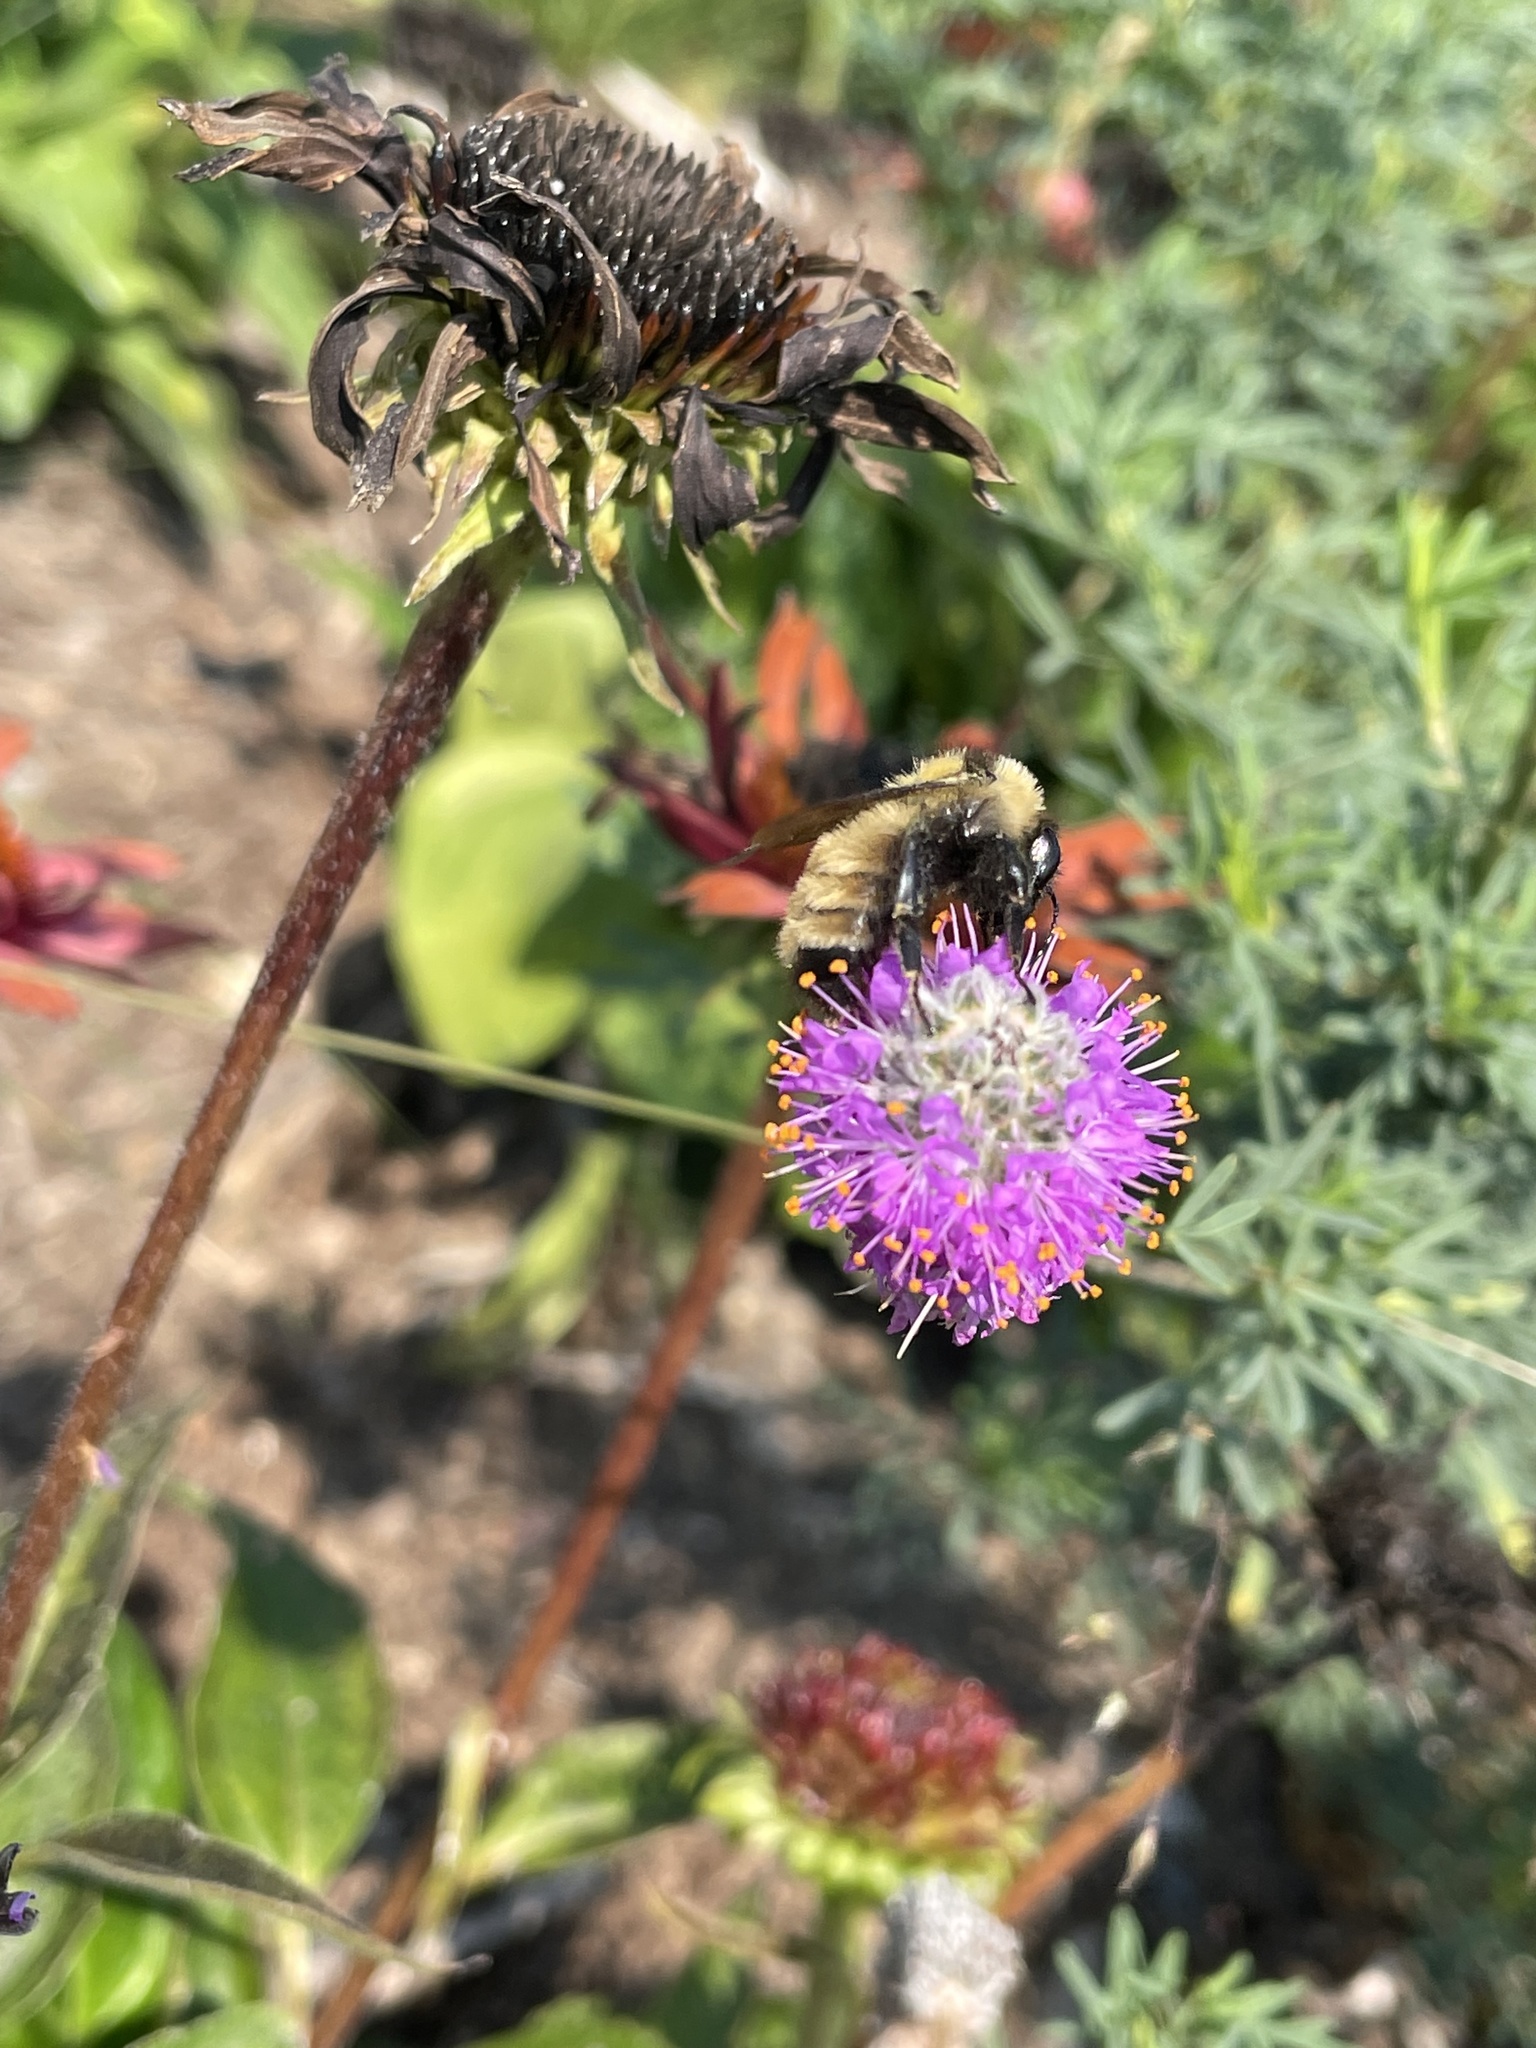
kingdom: Animalia
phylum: Arthropoda
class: Insecta
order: Hymenoptera
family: Apidae
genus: Bombus
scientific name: Bombus fervidus
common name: Yellow bumble bee
